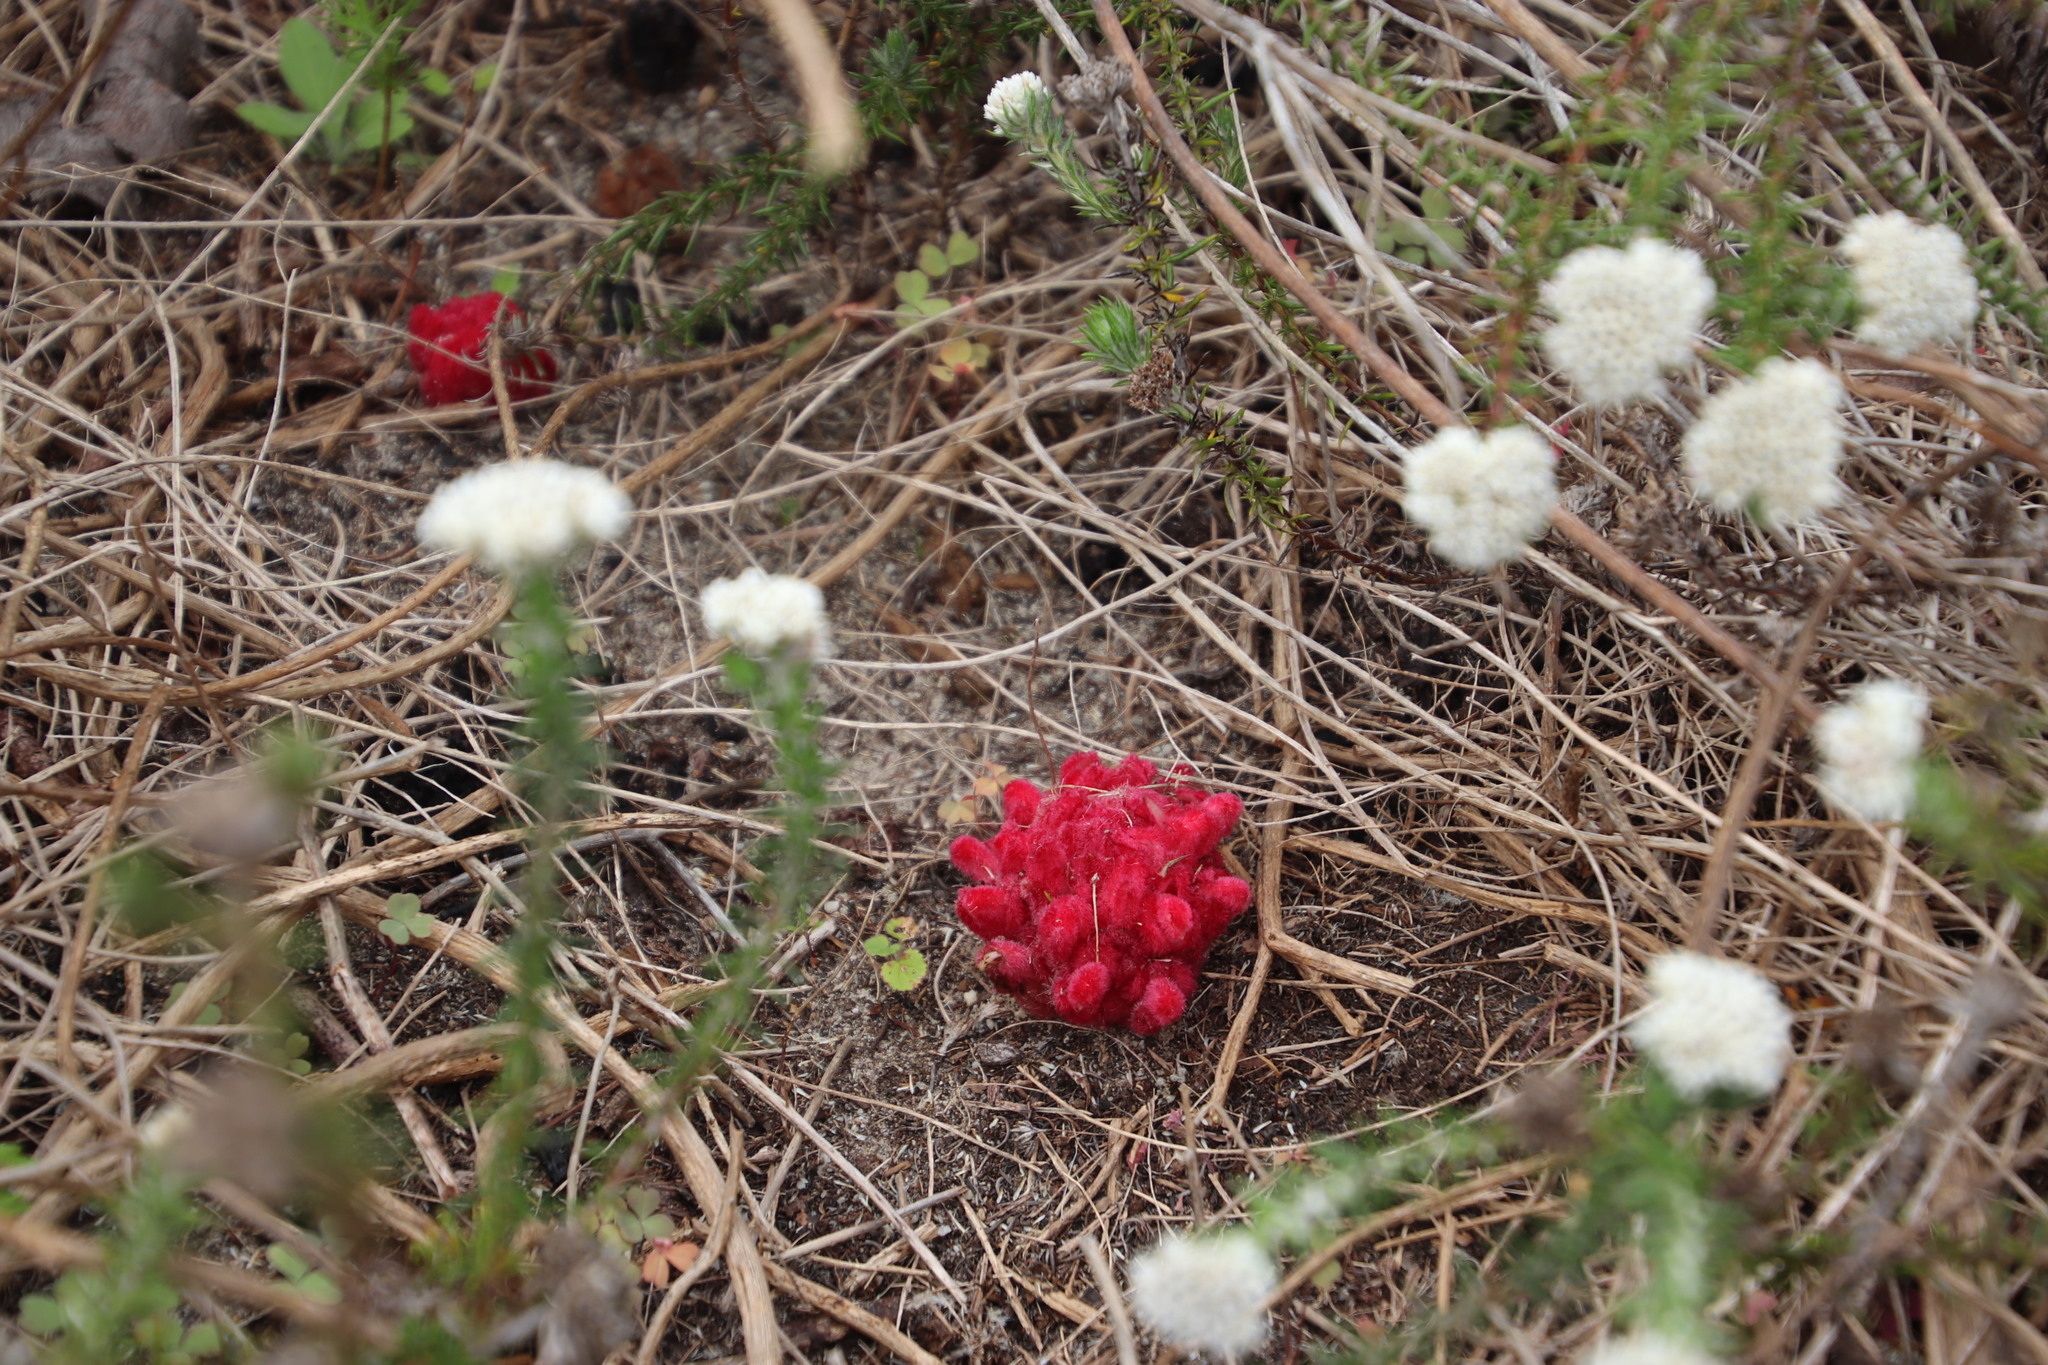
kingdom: Plantae
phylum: Tracheophyta
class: Magnoliopsida
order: Lamiales
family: Orobanchaceae
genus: Hyobanche
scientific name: Hyobanche sanguinea
